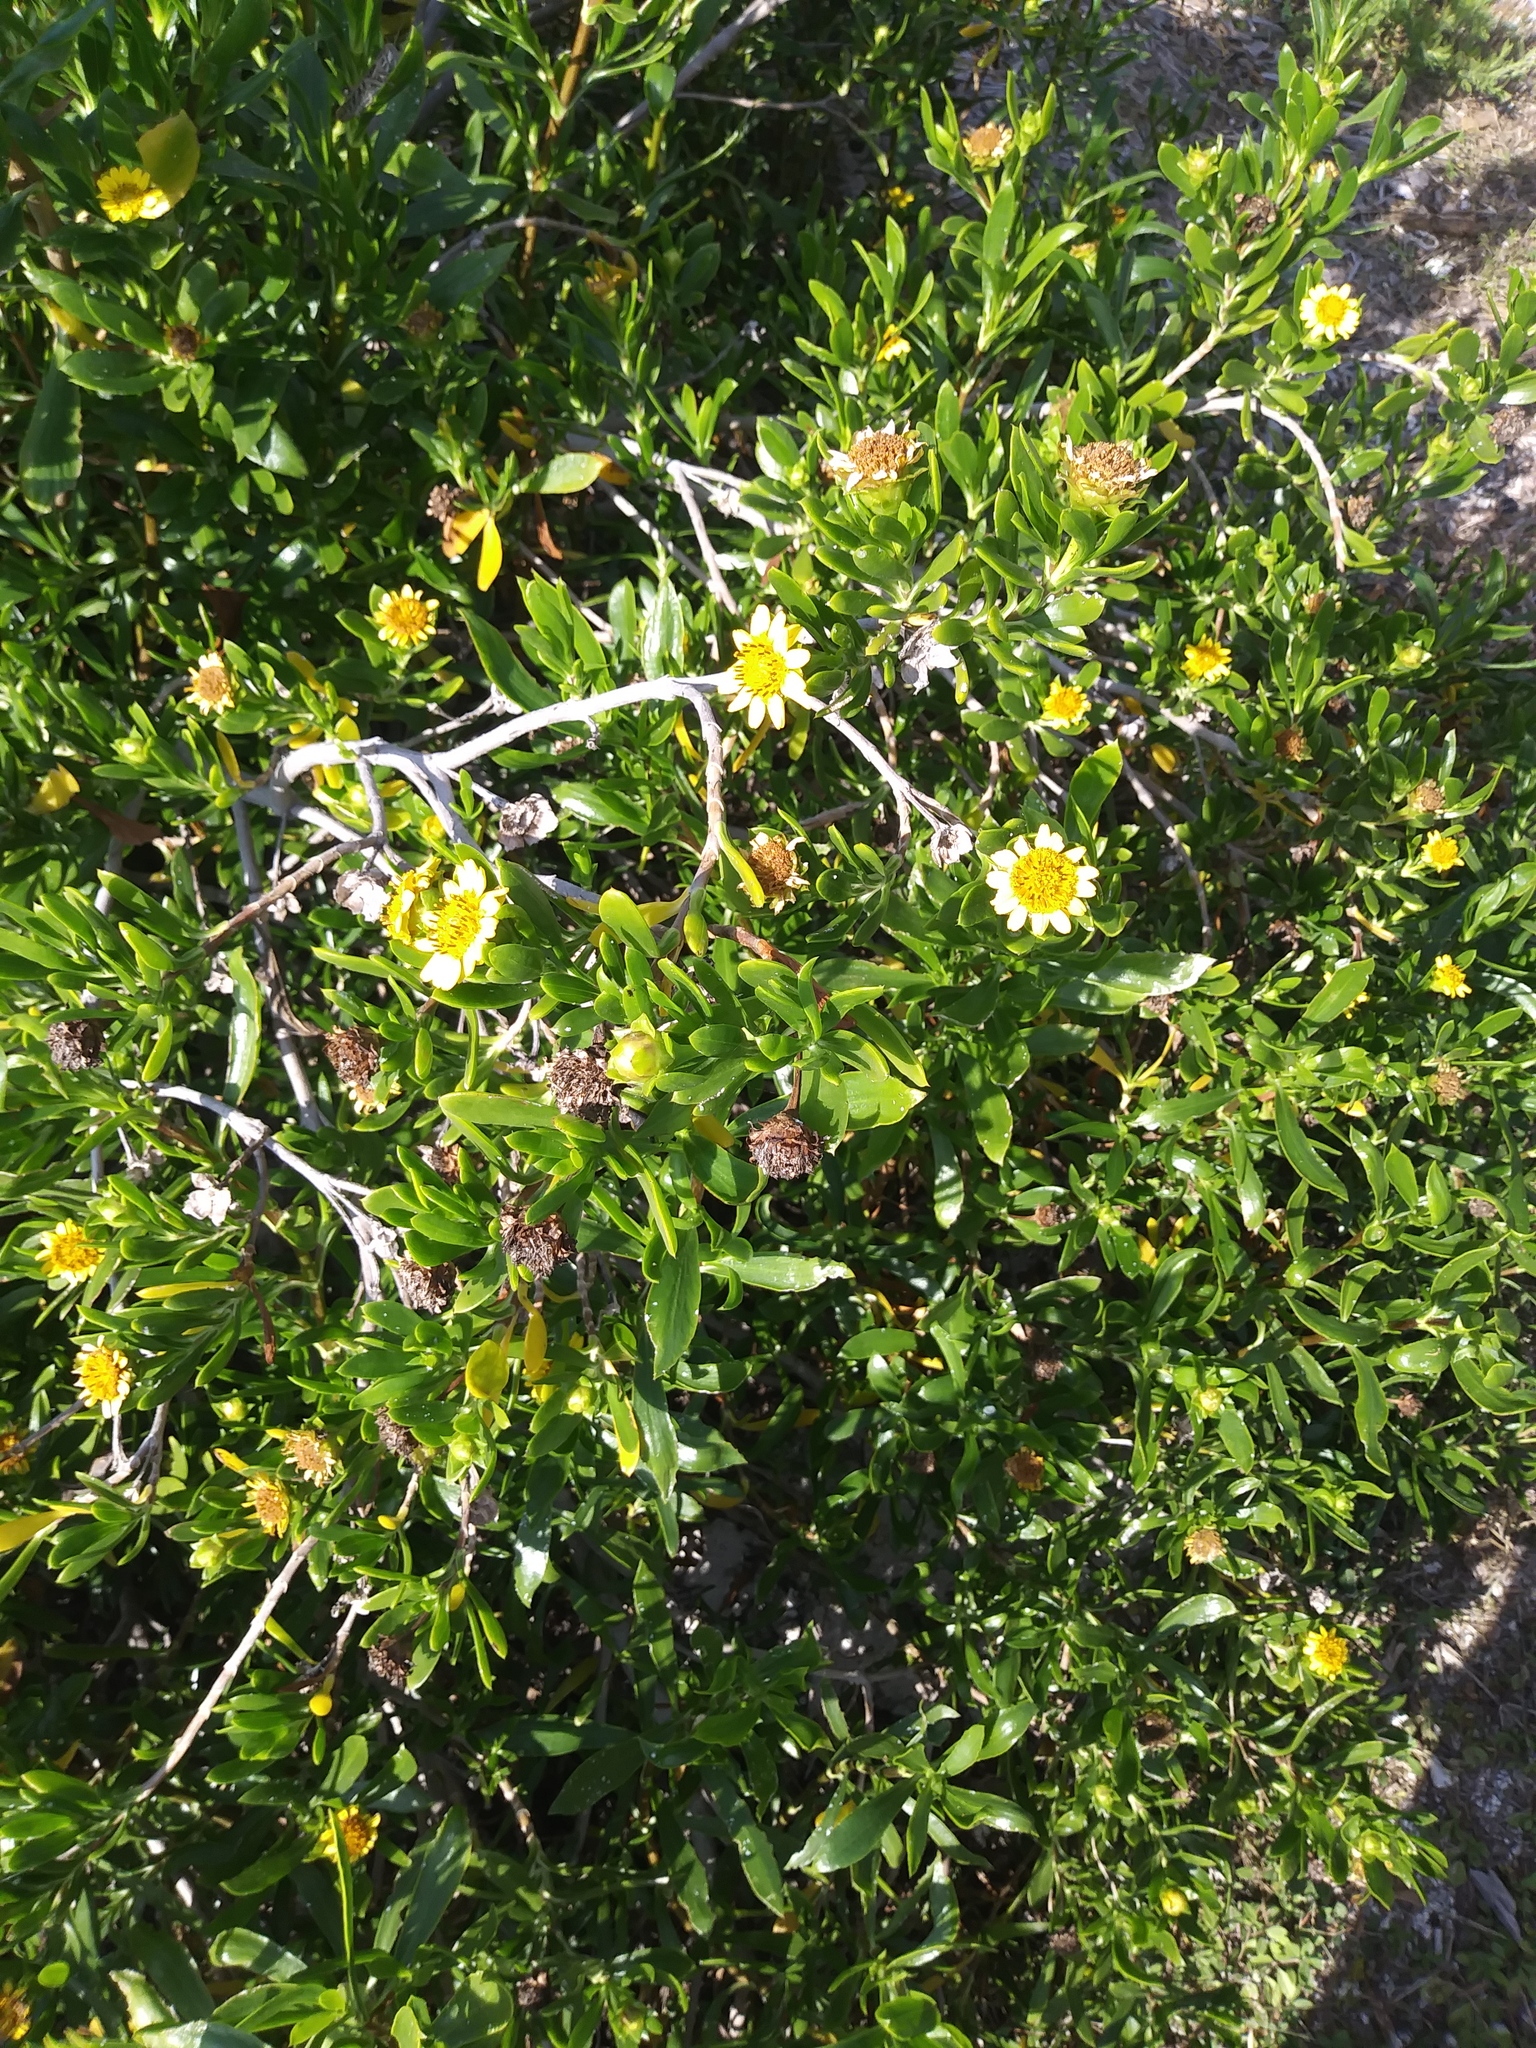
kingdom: Plantae
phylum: Tracheophyta
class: Magnoliopsida
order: Asterales
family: Asteraceae
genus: Borrichia
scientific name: Borrichia arborescens
